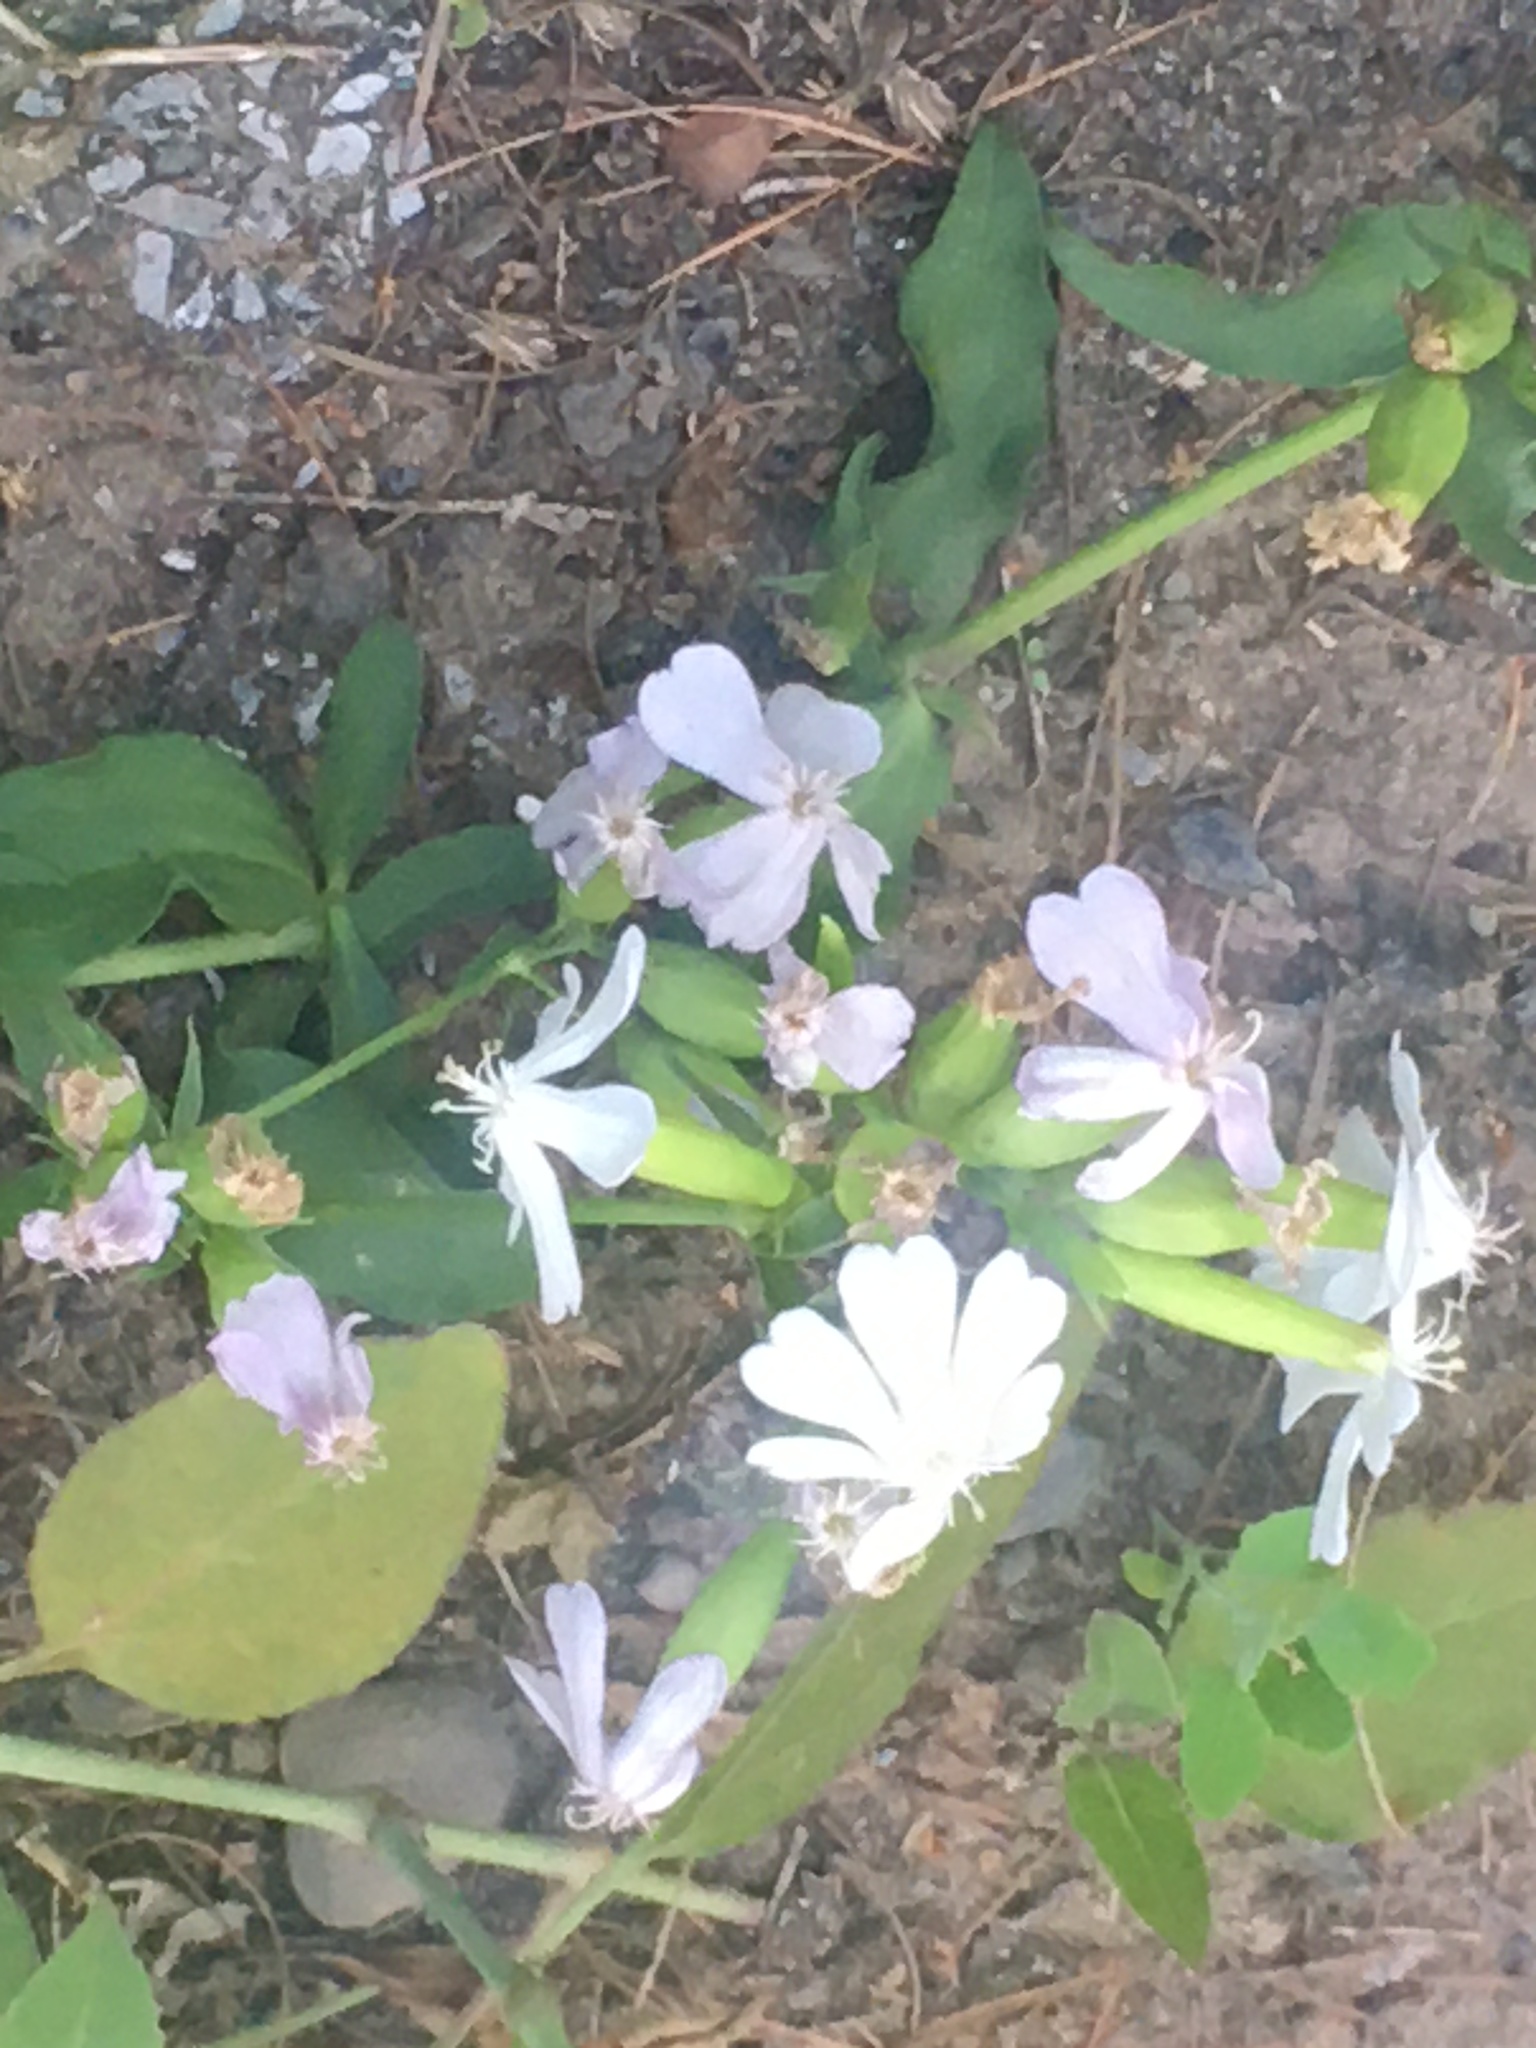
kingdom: Plantae
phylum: Tracheophyta
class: Magnoliopsida
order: Caryophyllales
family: Caryophyllaceae
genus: Saponaria
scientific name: Saponaria officinalis
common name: Soapwort
